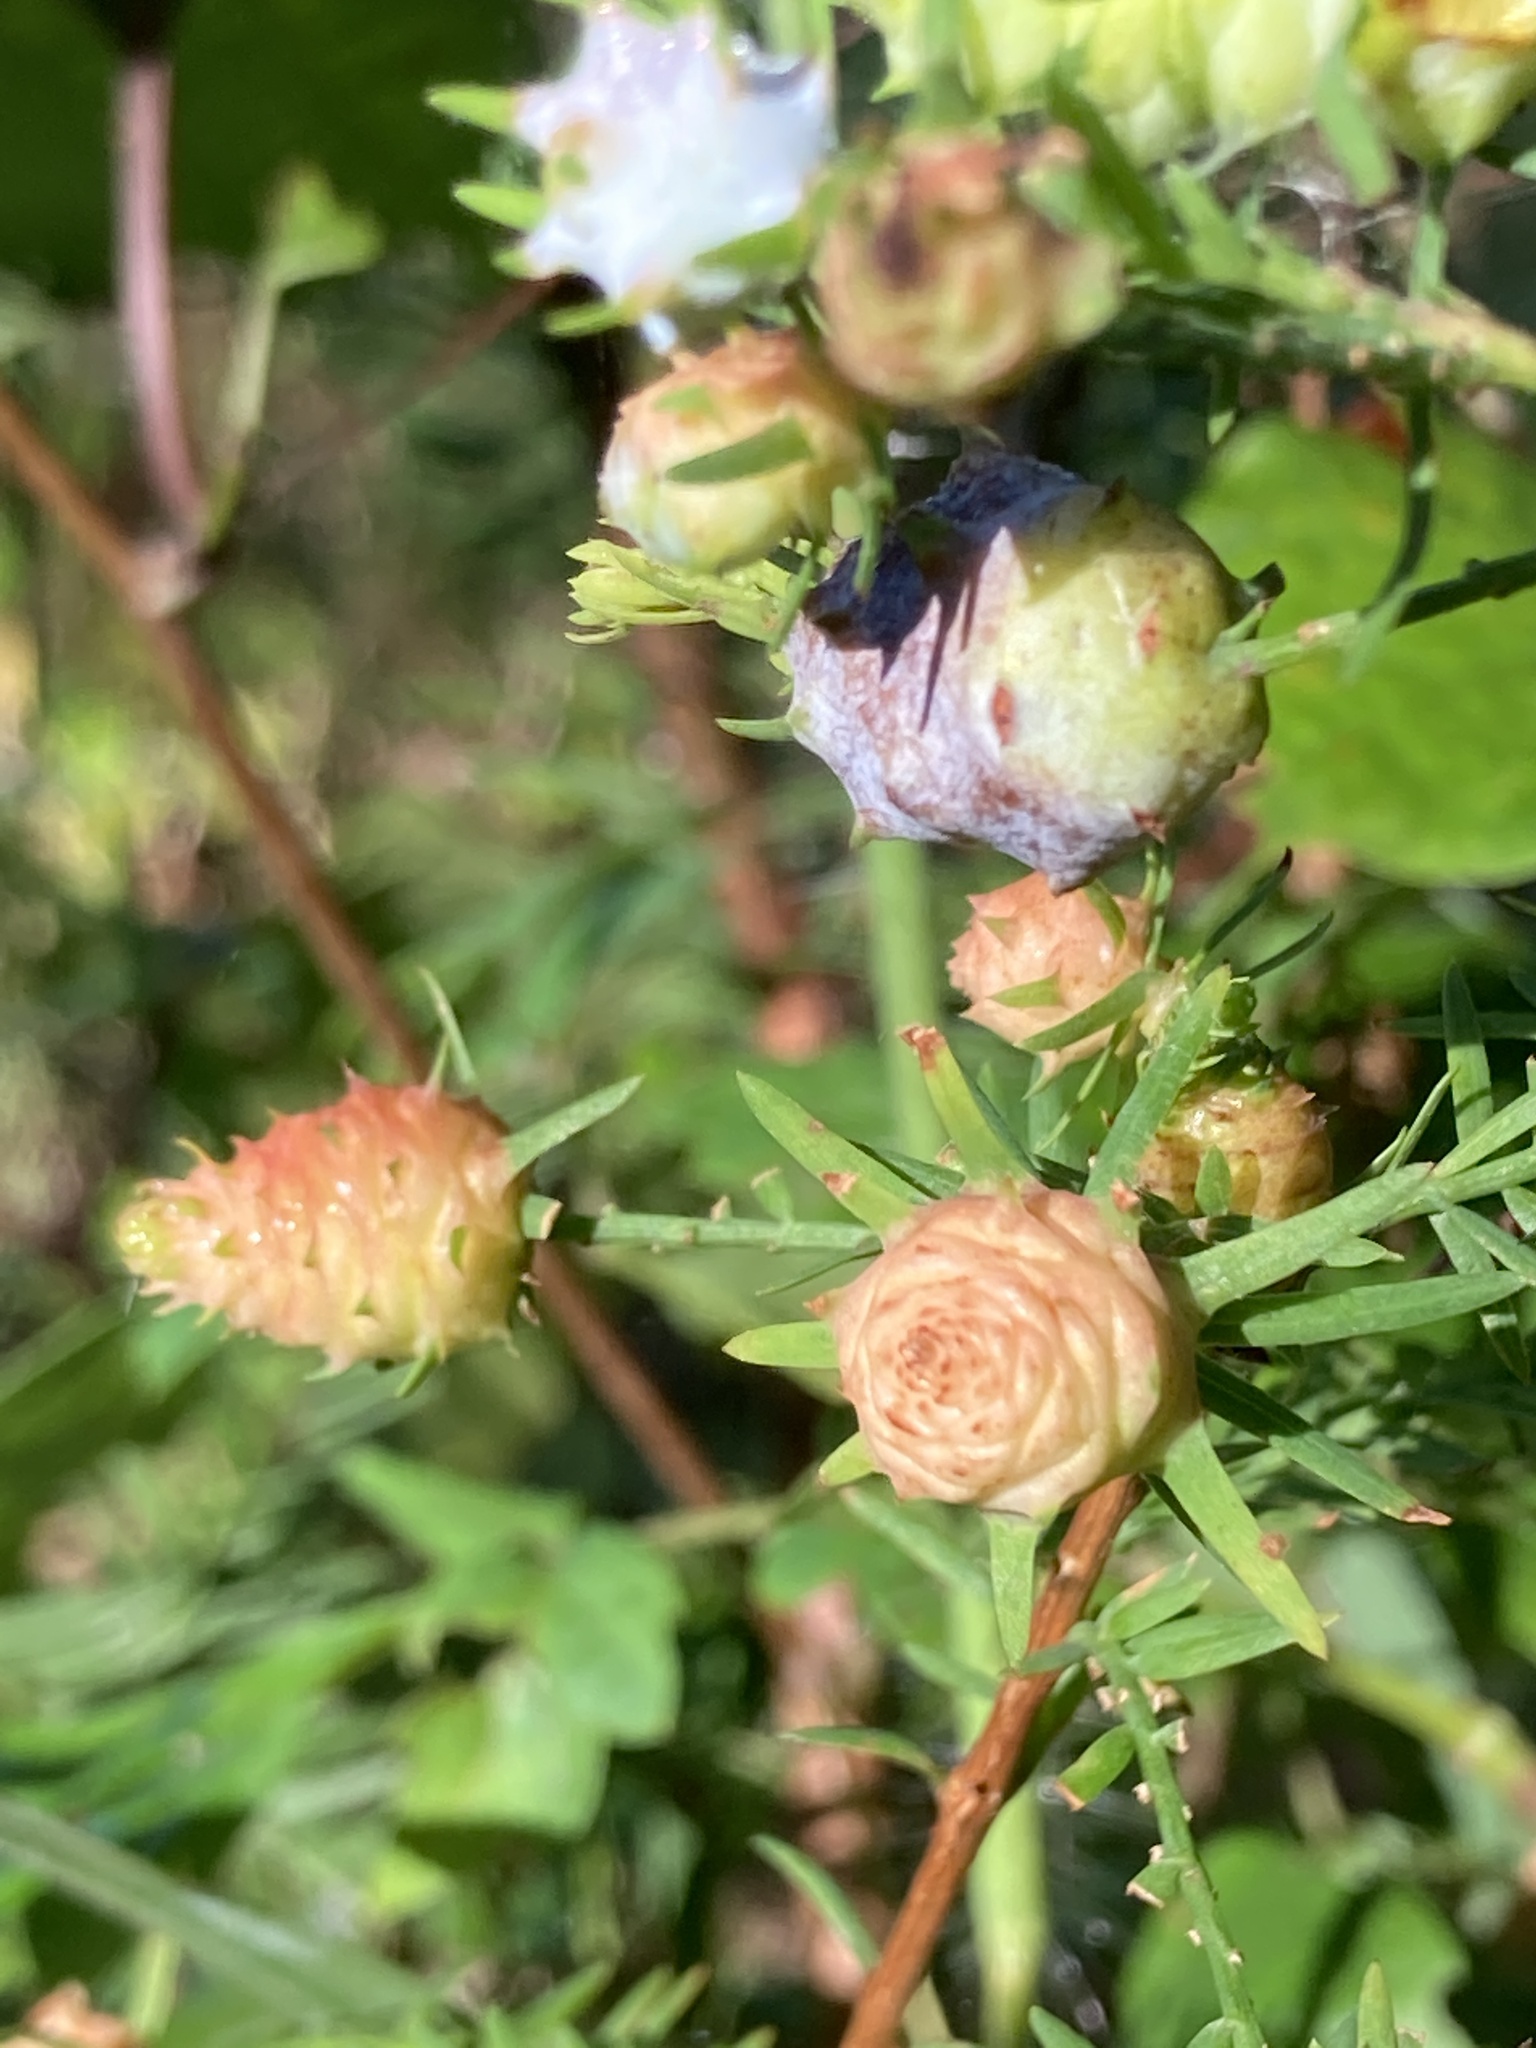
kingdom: Animalia
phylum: Arthropoda
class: Insecta
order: Diptera
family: Cecidomyiidae
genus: Taxodiomyia
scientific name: Taxodiomyia cupressiananassa
